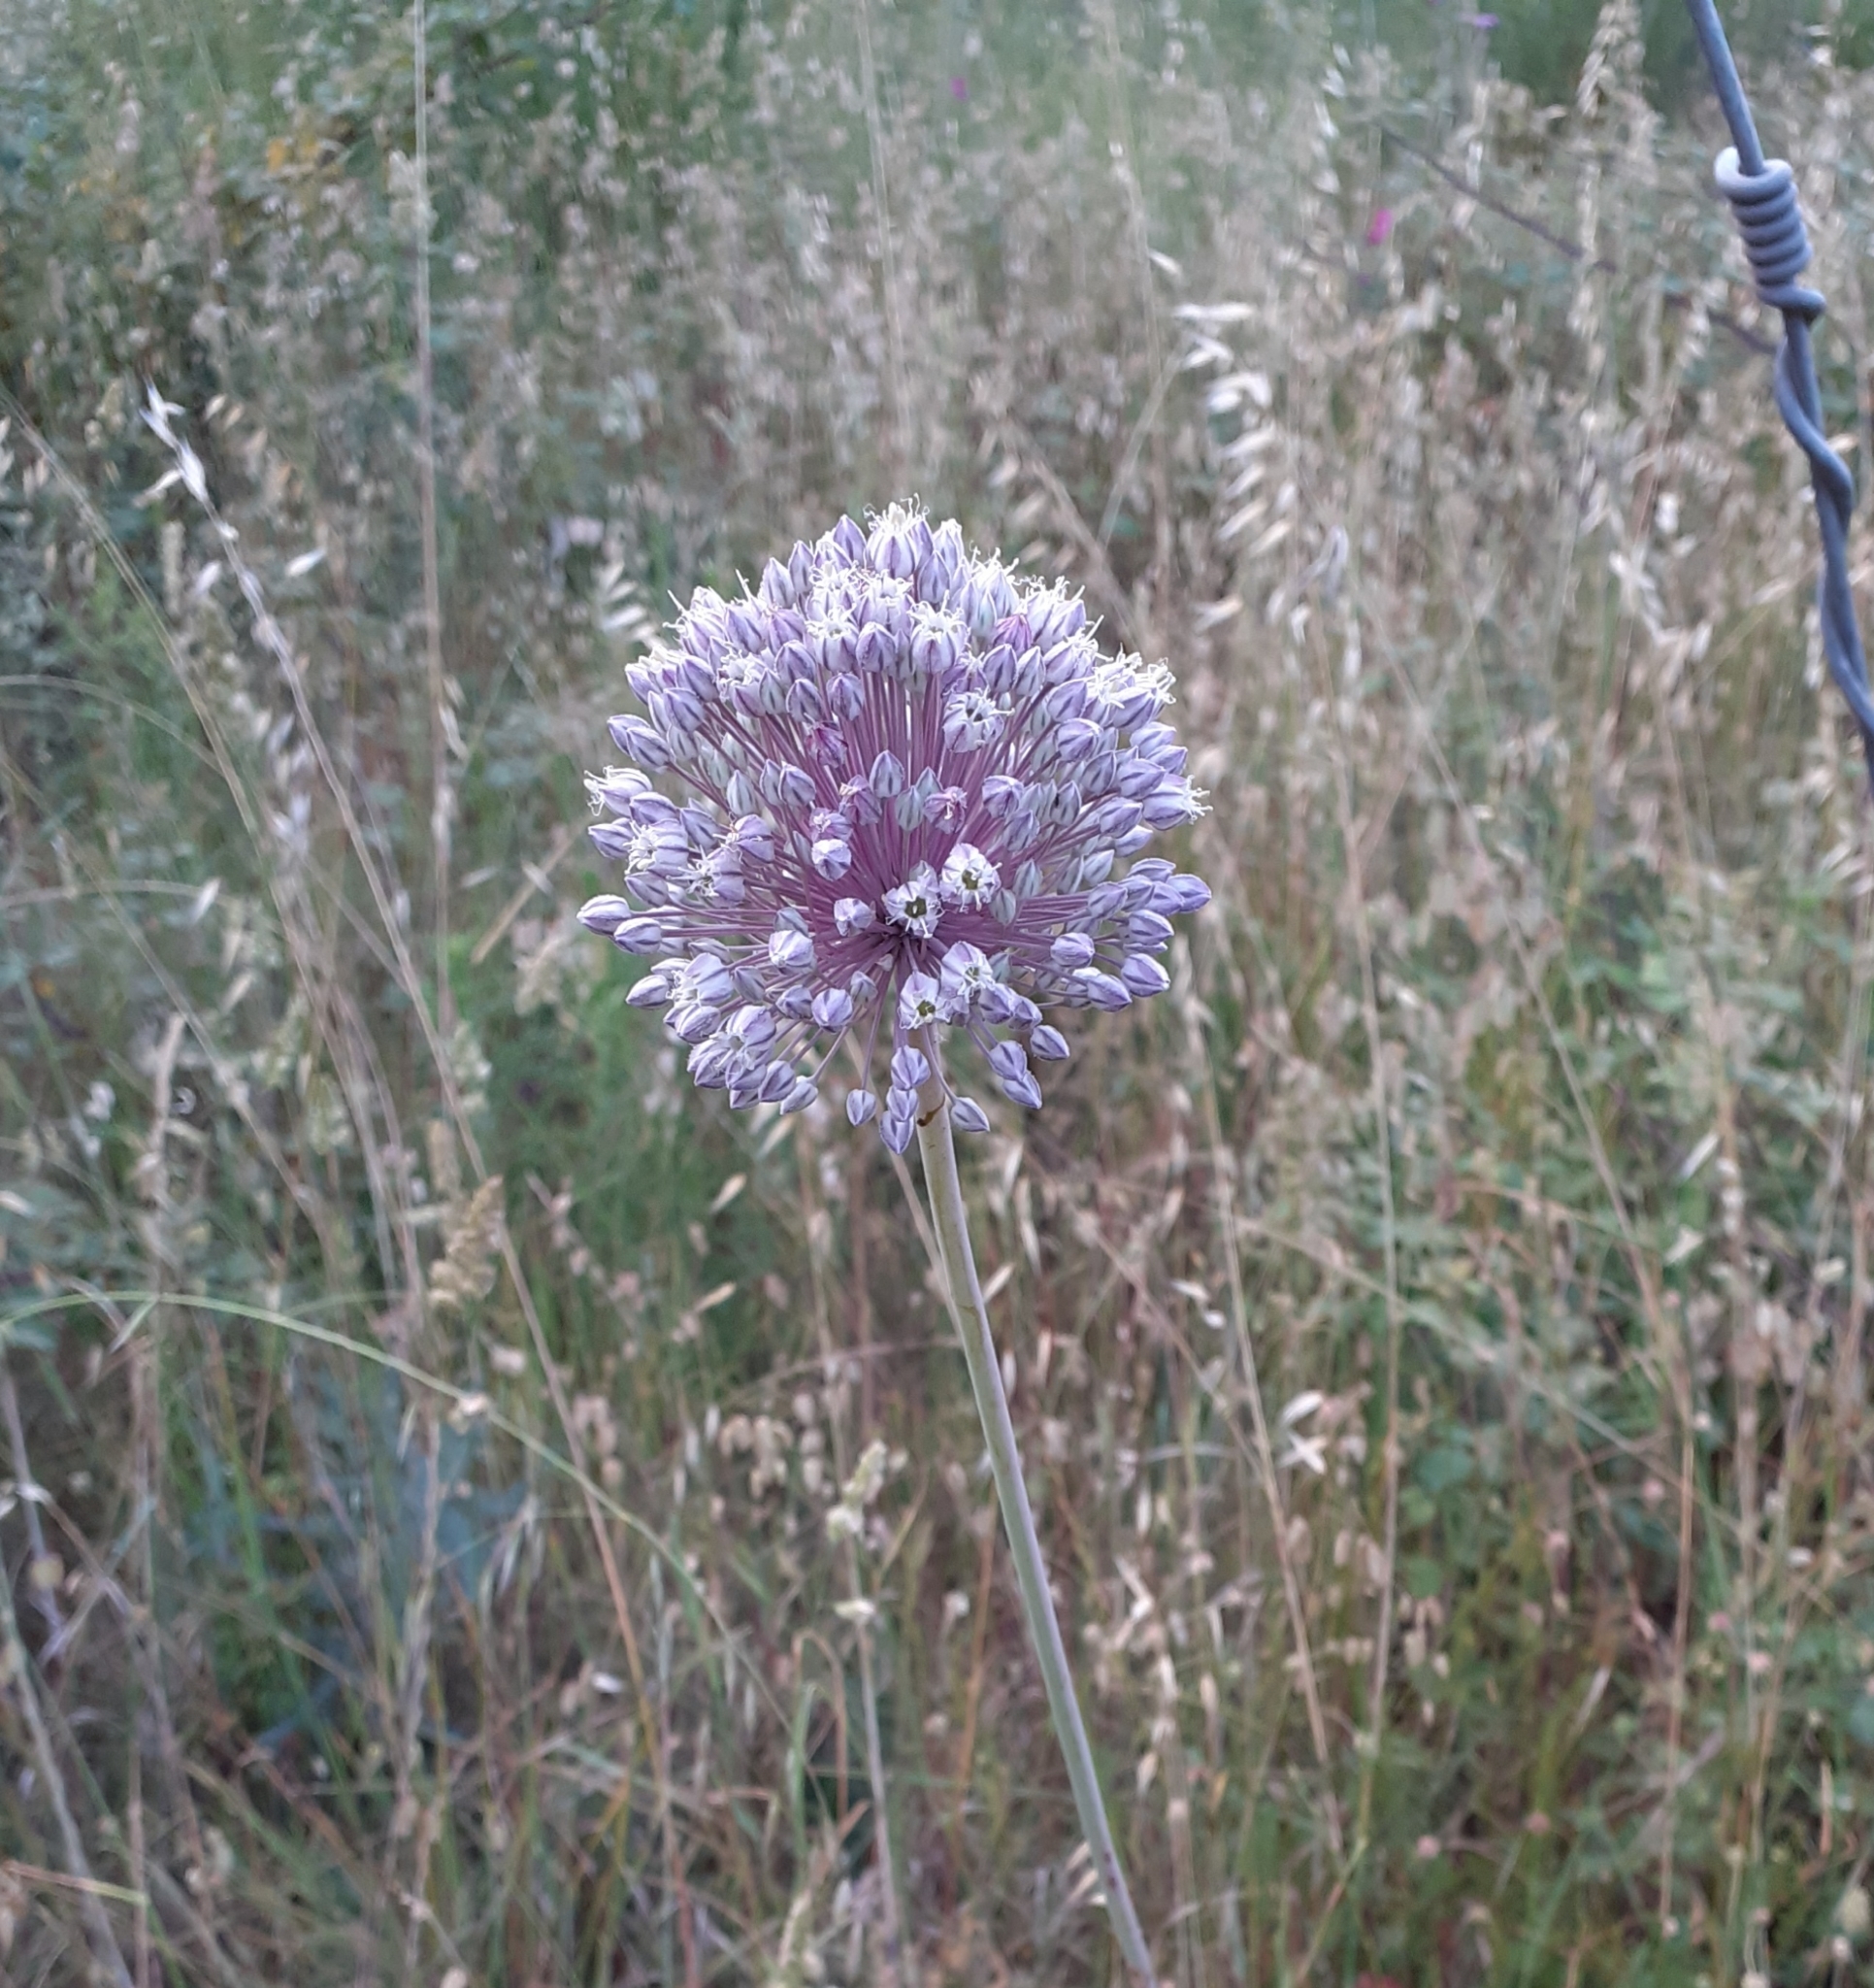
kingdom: Plantae
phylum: Tracheophyta
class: Liliopsida
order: Asparagales
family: Amaryllidaceae
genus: Allium
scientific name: Allium ampeloprasum
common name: Wild leek
